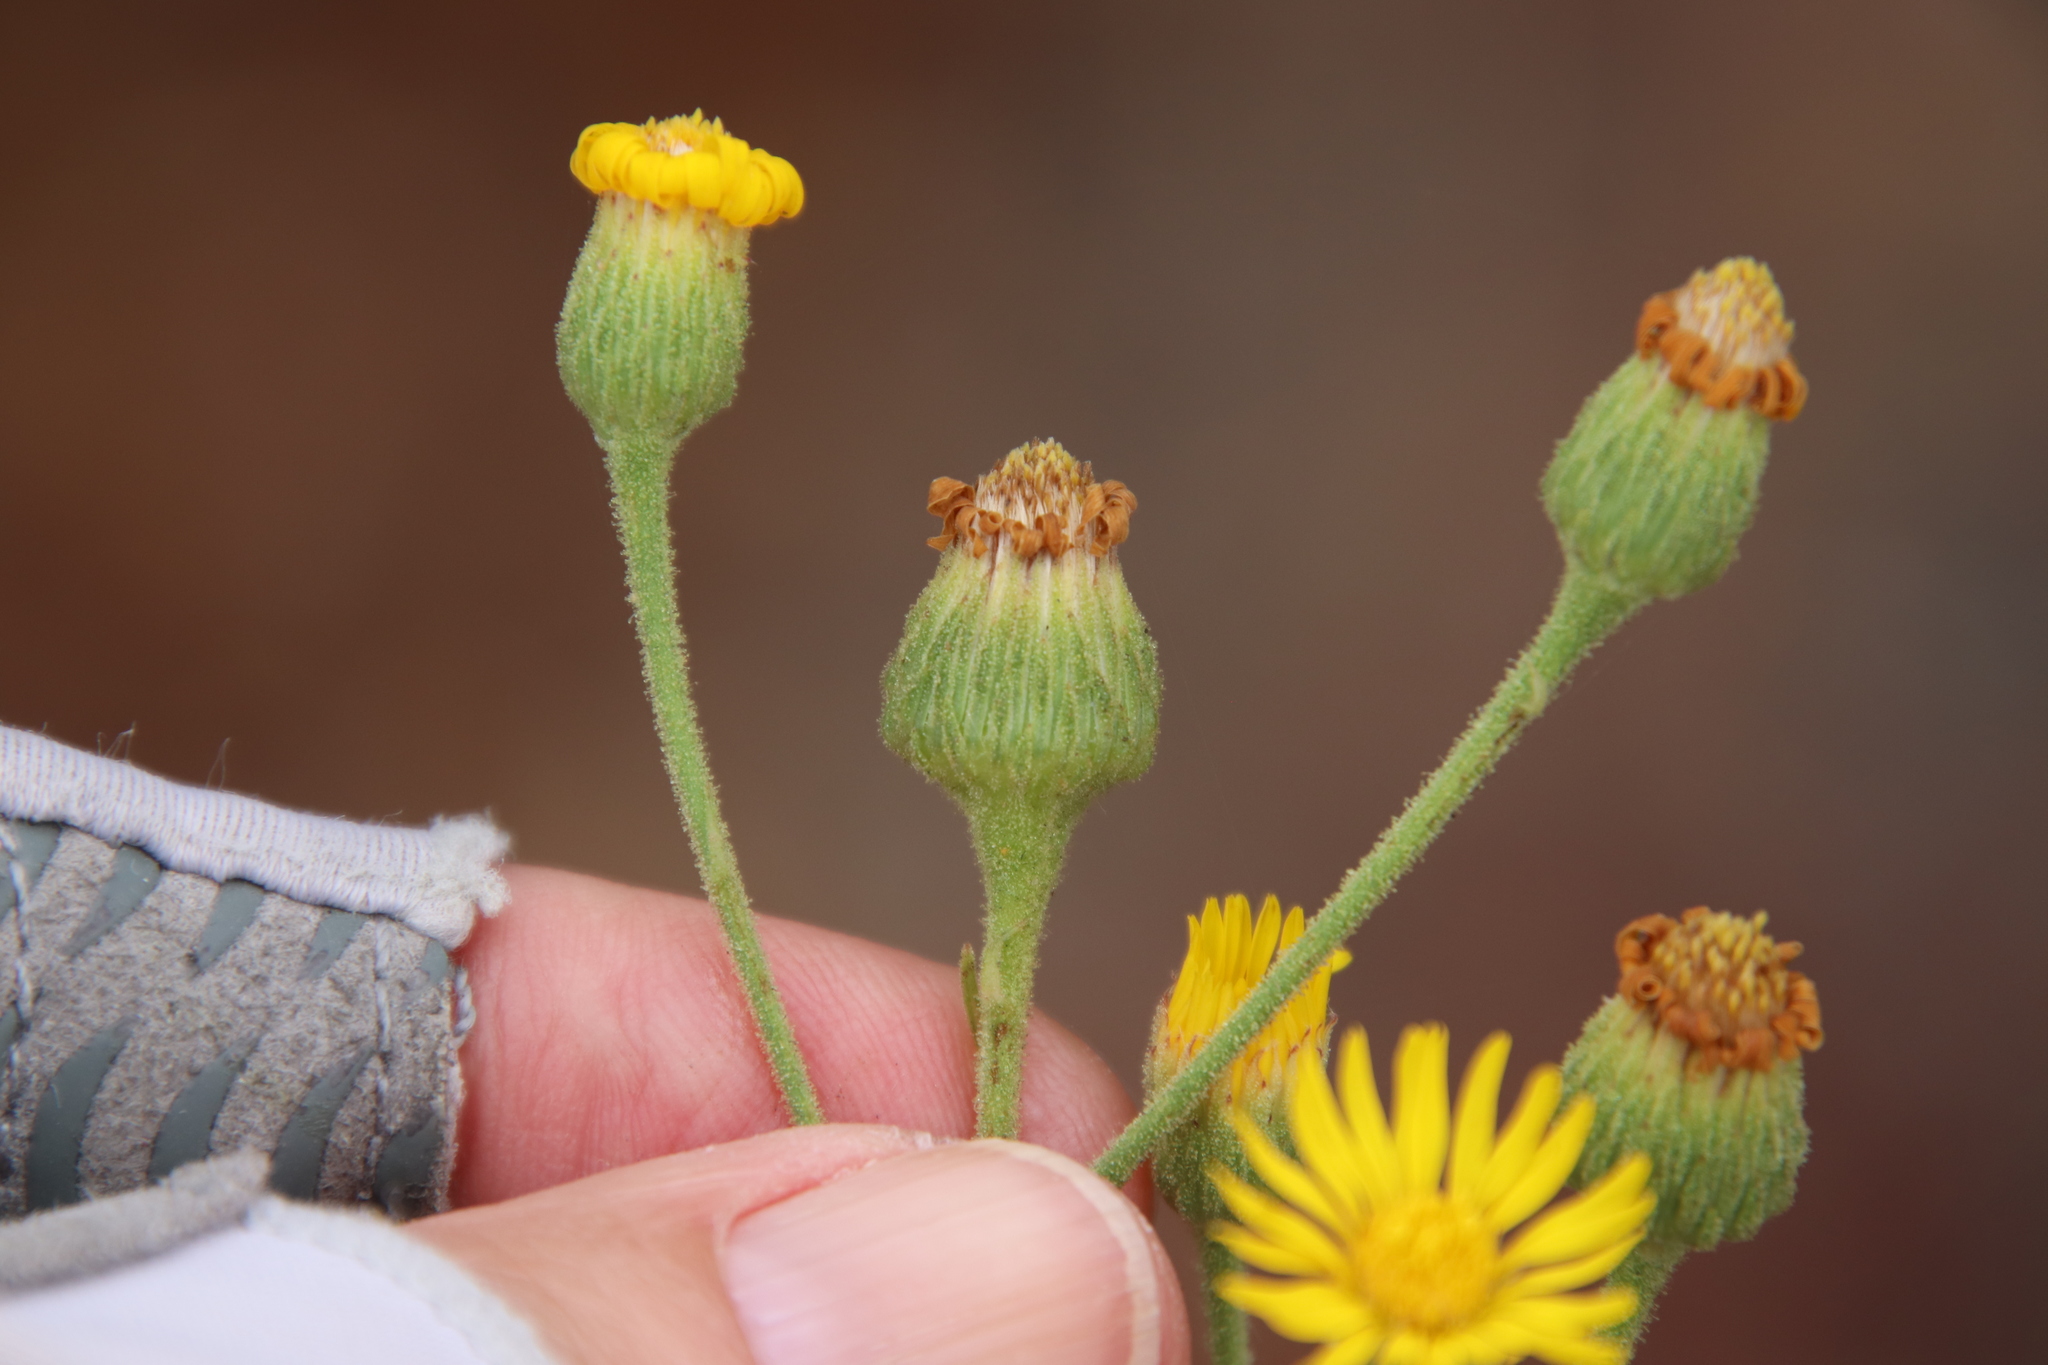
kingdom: Plantae
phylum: Tracheophyta
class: Magnoliopsida
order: Asterales
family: Asteraceae
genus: Heterotheca
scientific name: Heterotheca grandiflora
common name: Telegraphweed
